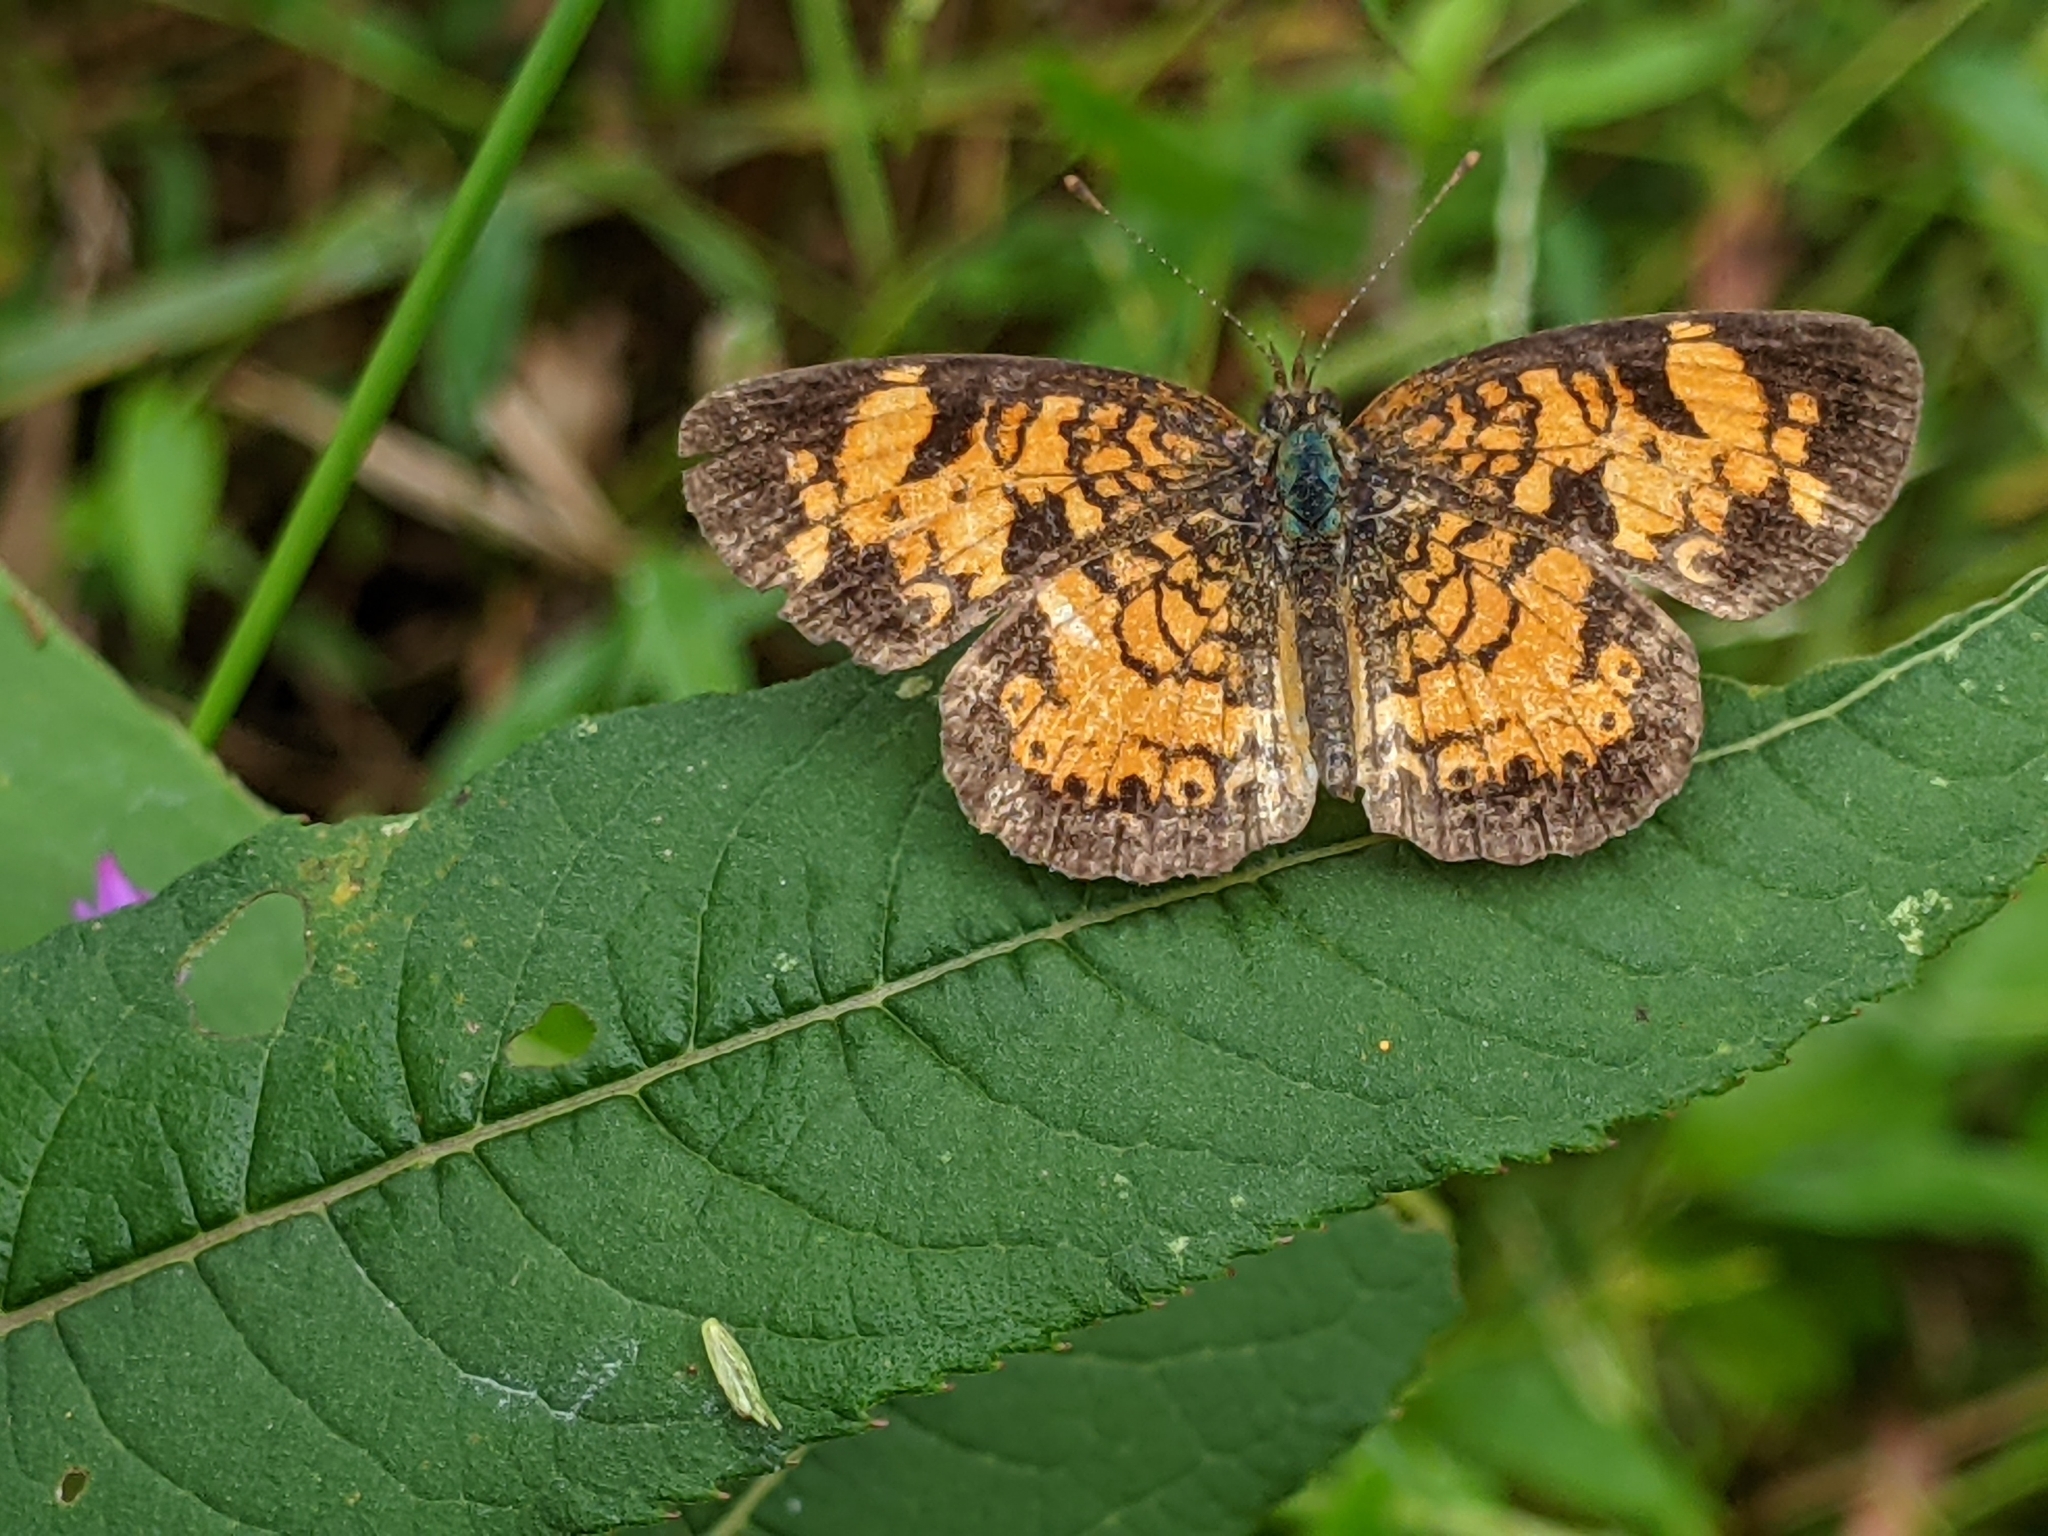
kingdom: Animalia
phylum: Arthropoda
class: Insecta
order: Lepidoptera
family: Nymphalidae
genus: Phyciodes
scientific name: Phyciodes tharos
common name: Pearl crescent
